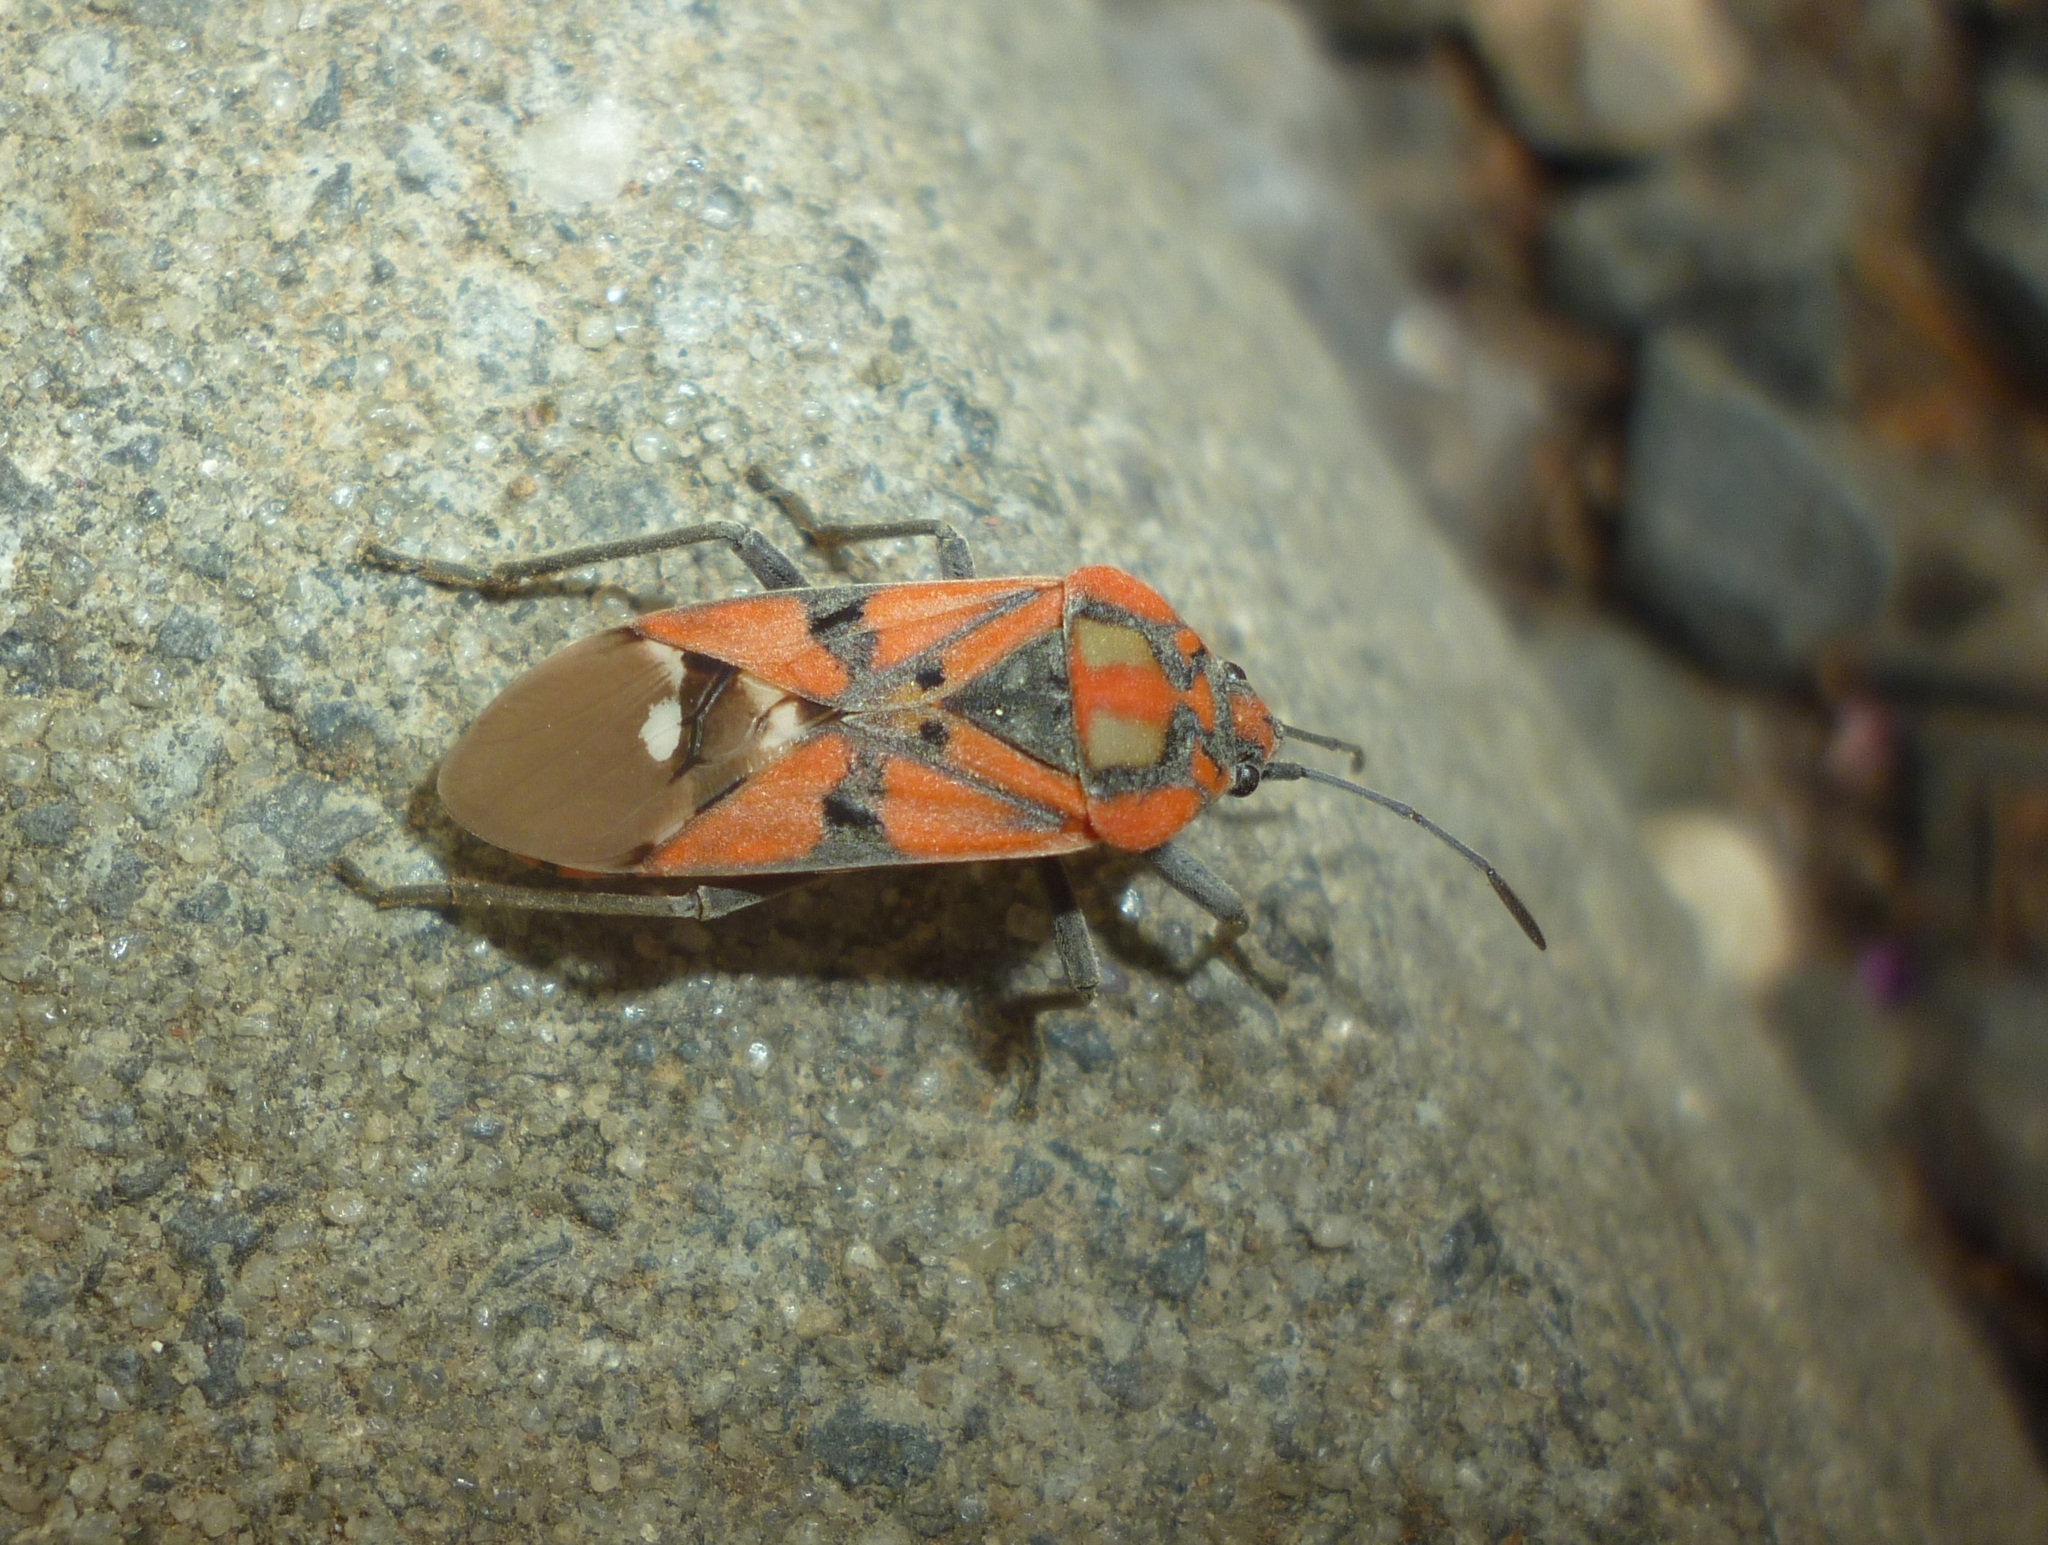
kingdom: Animalia
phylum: Arthropoda
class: Insecta
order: Hemiptera
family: Lygaeidae
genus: Spilostethus
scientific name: Spilostethus pandurus
